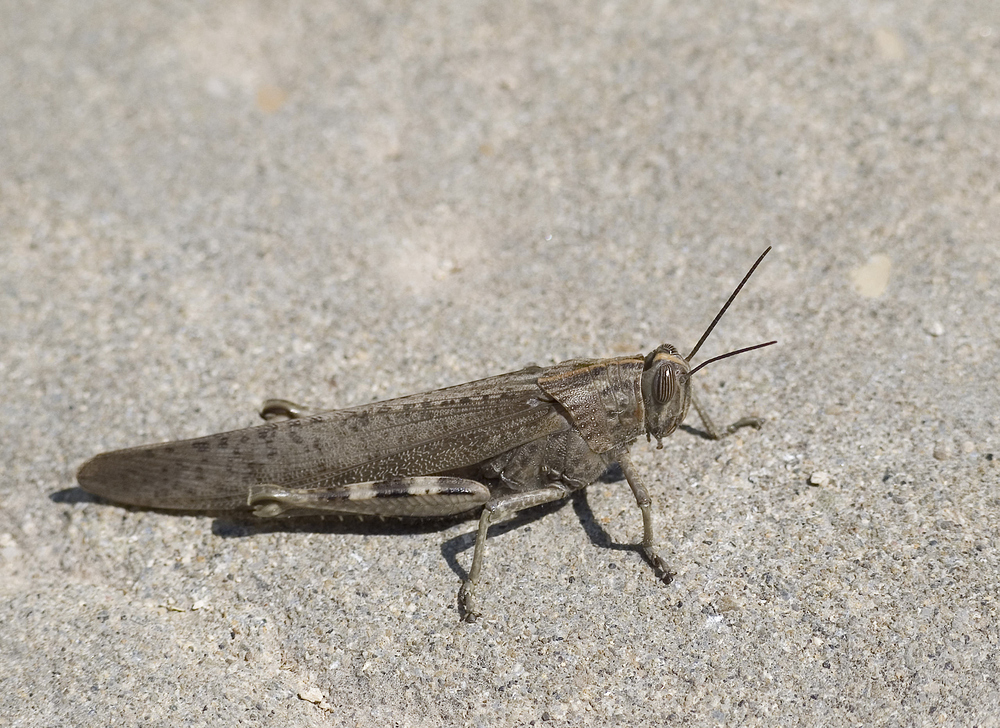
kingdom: Animalia
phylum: Arthropoda
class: Insecta
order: Orthoptera
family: Acrididae
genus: Anacridium
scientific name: Anacridium aegyptium
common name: Egyptian grasshopper
